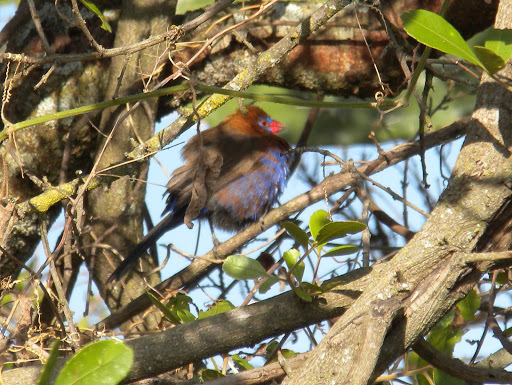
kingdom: Animalia
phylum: Chordata
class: Aves
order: Passeriformes
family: Estrildidae
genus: Uraeginthus
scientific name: Uraeginthus ianthinogaster
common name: Purple grenadier
